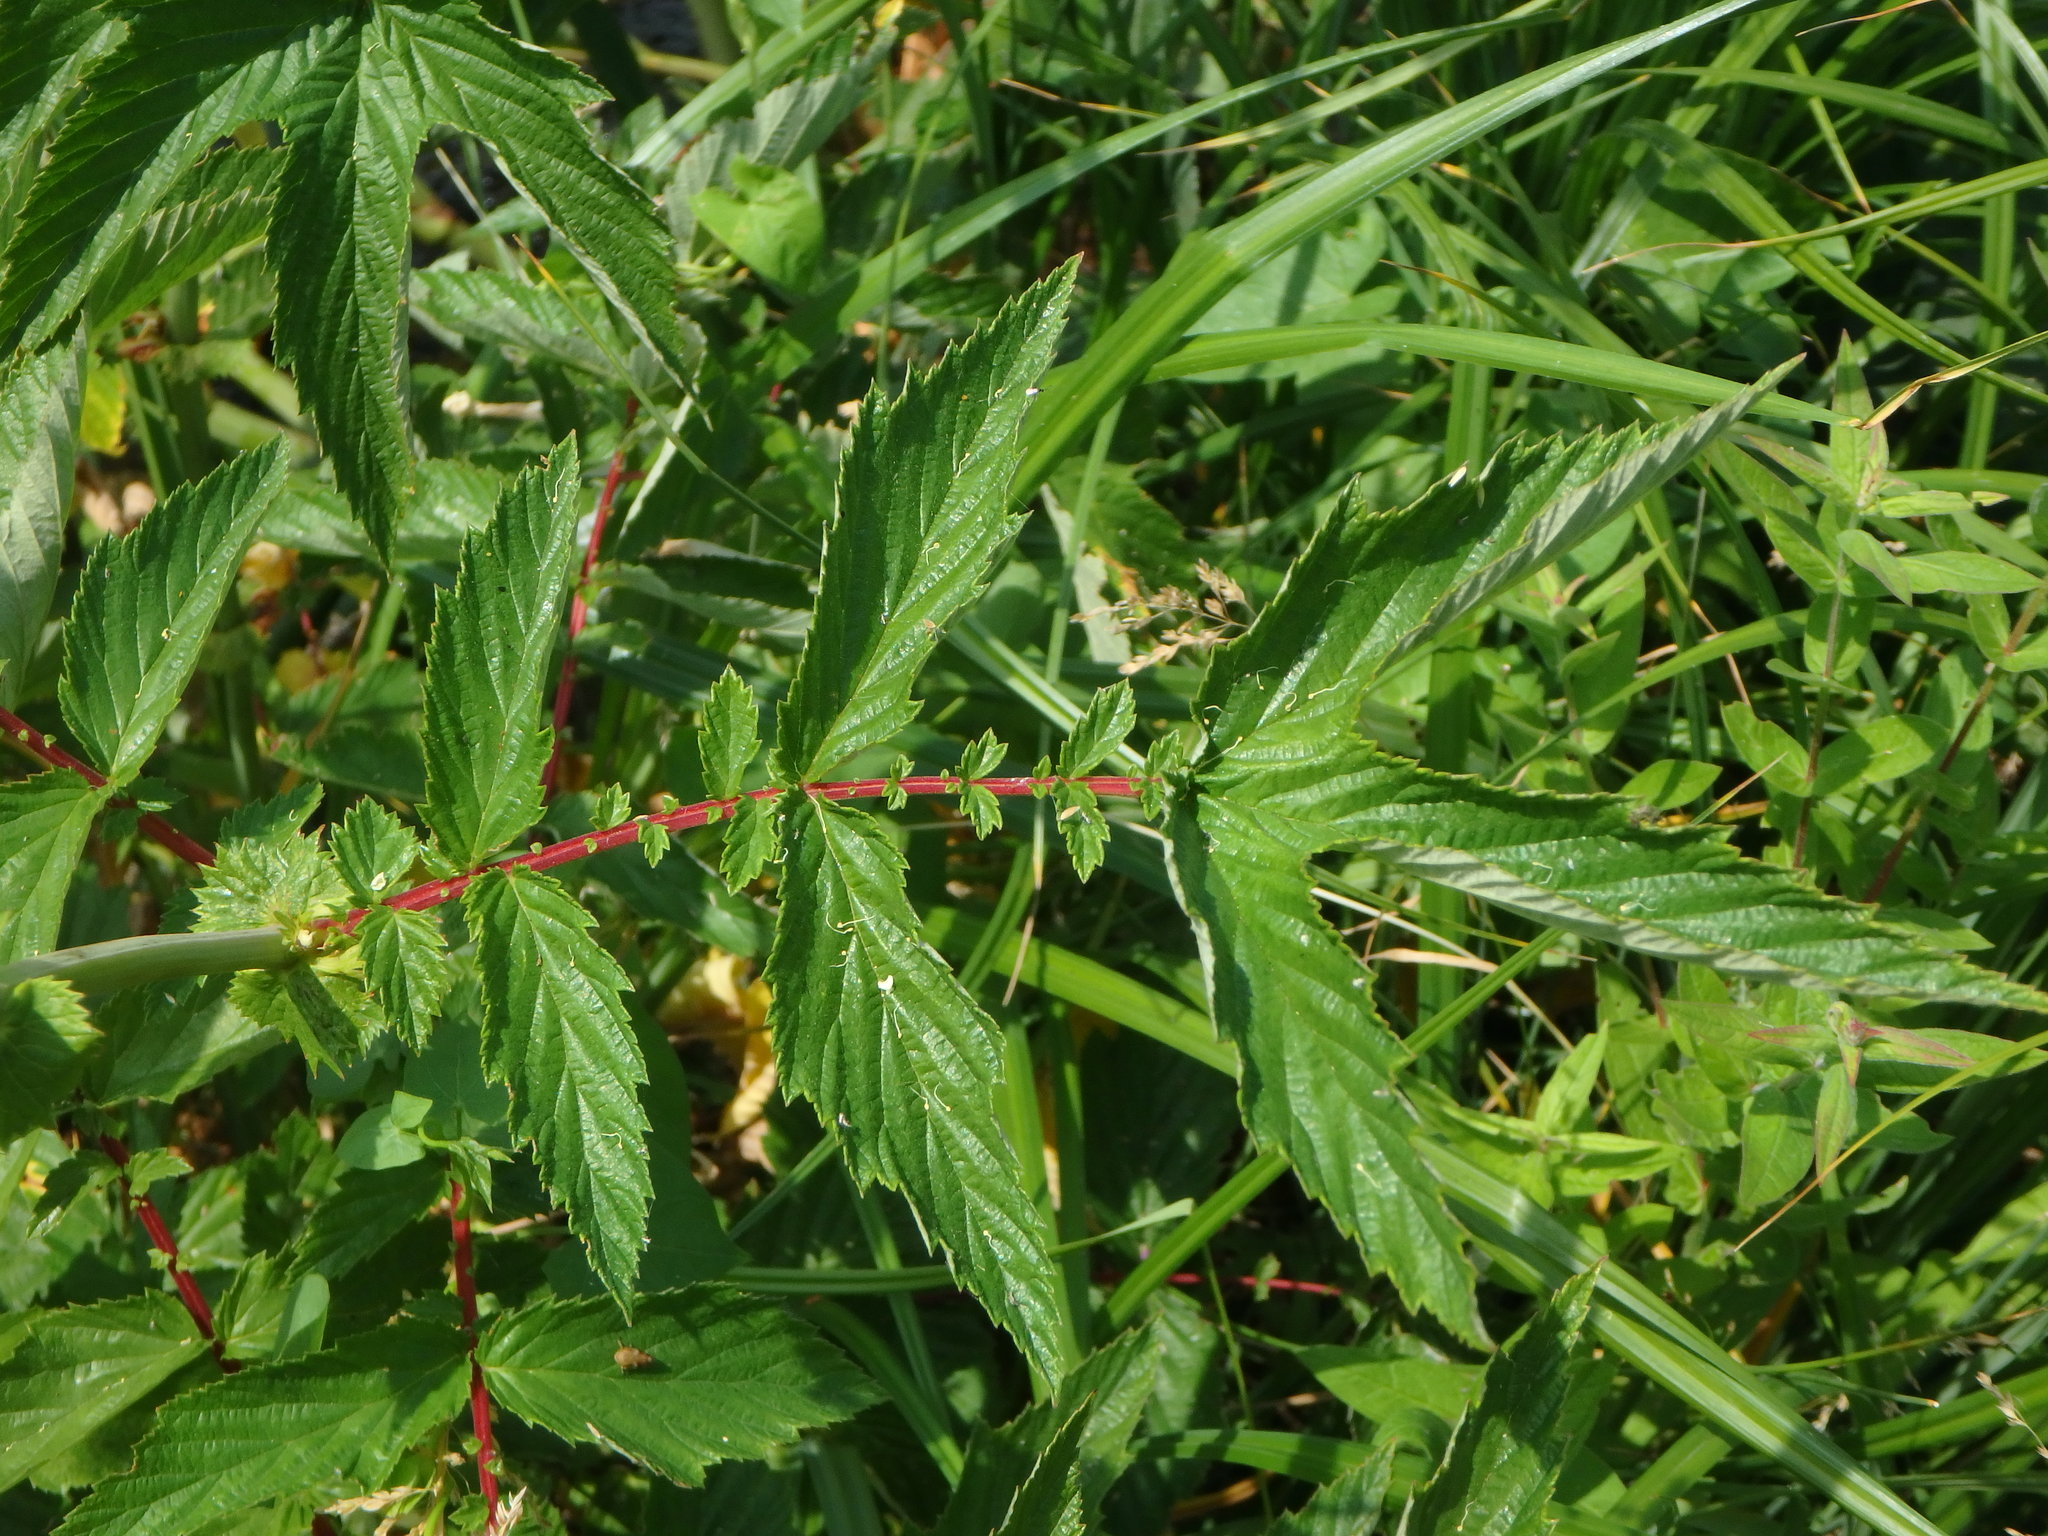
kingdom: Plantae
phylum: Tracheophyta
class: Magnoliopsida
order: Rosales
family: Rosaceae
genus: Filipendula
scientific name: Filipendula ulmaria
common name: Meadowsweet
